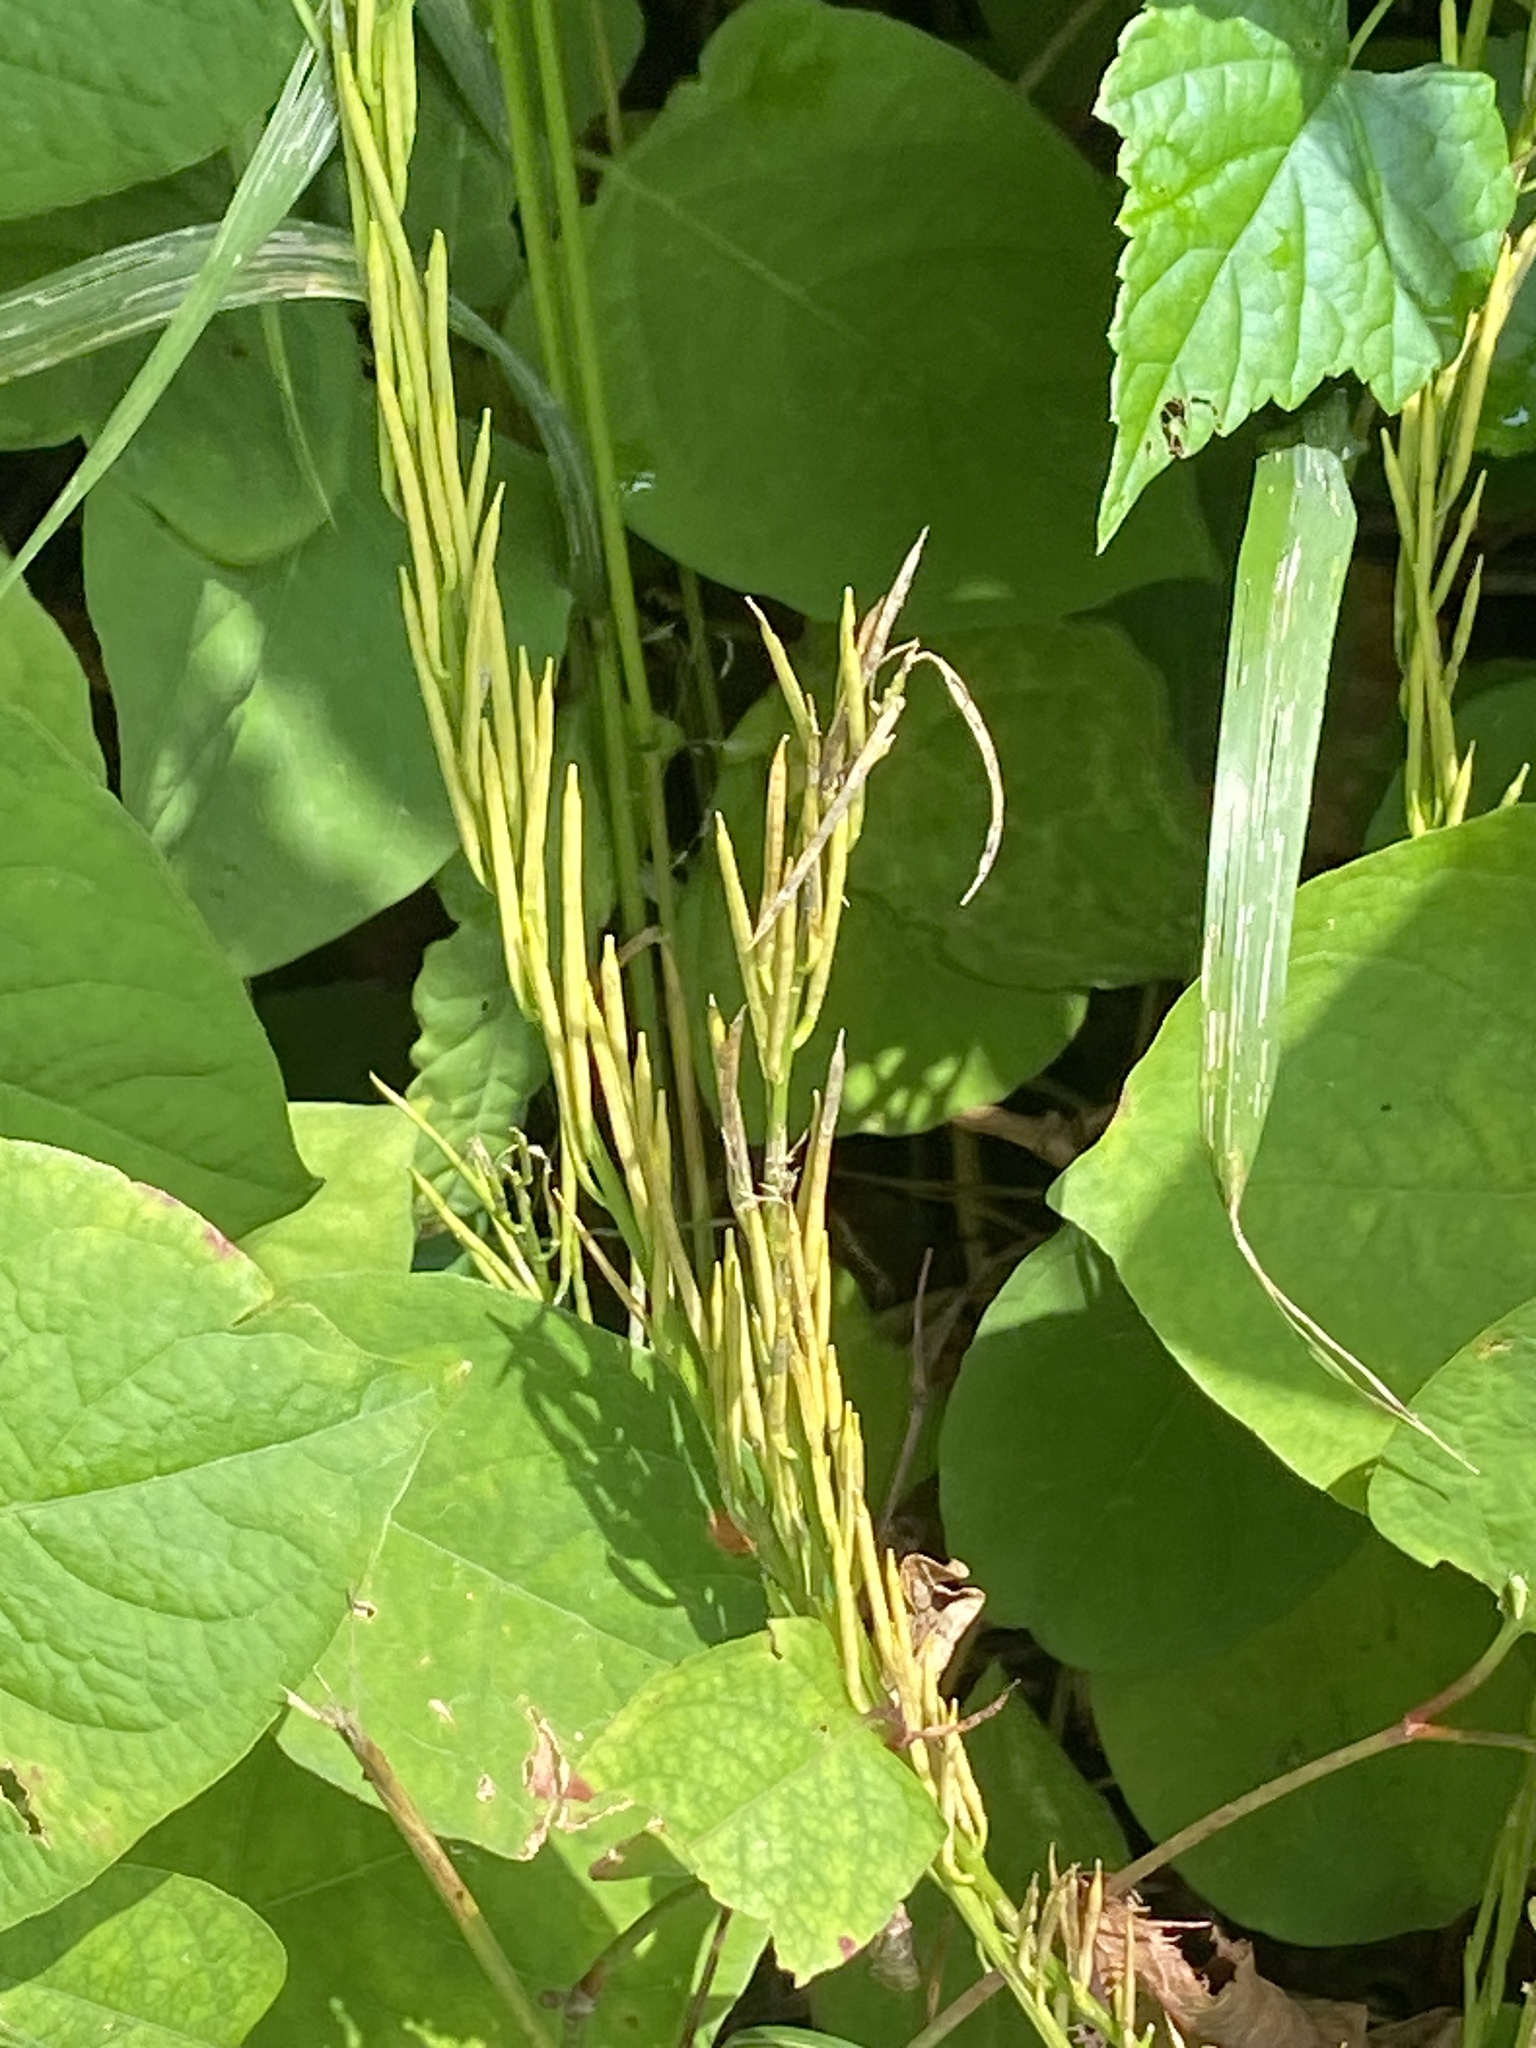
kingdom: Plantae
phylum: Tracheophyta
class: Magnoliopsida
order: Brassicales
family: Brassicaceae
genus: Barbarea
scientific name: Barbarea stricta
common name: Small-flowered winter-cress
